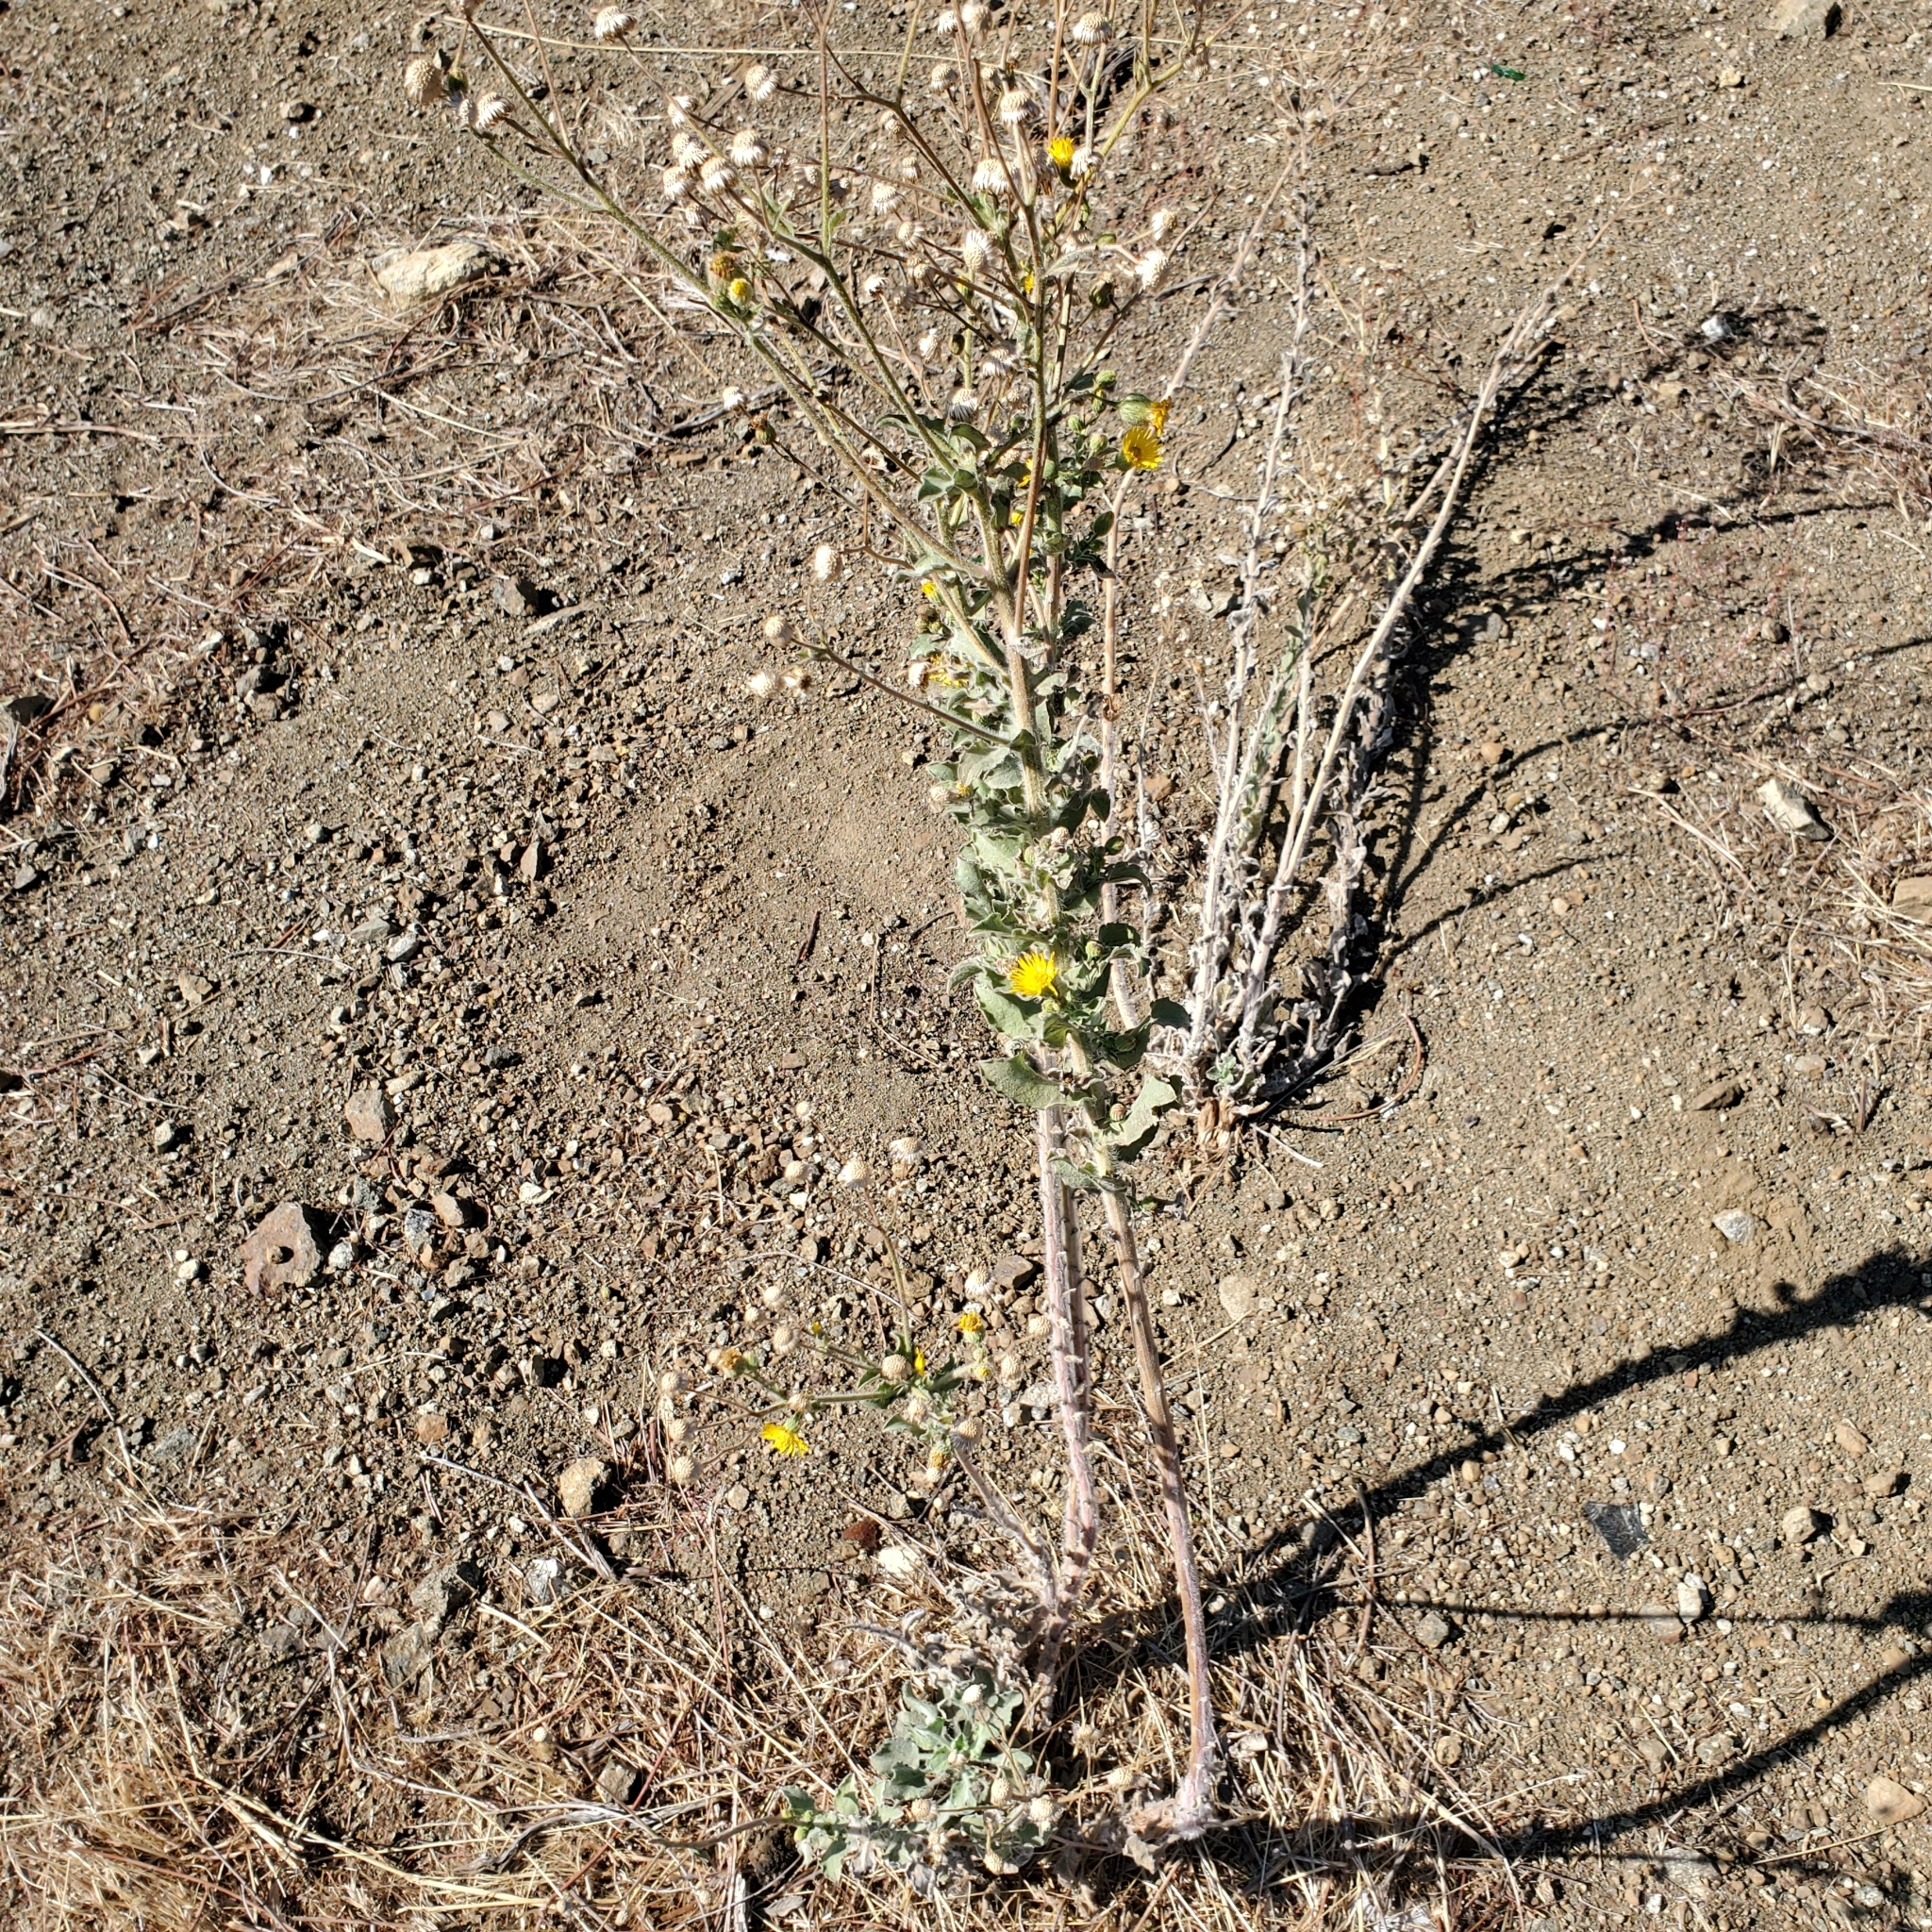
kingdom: Plantae
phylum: Tracheophyta
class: Magnoliopsida
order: Asterales
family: Asteraceae
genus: Heterotheca
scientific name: Heterotheca grandiflora
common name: Telegraphweed
